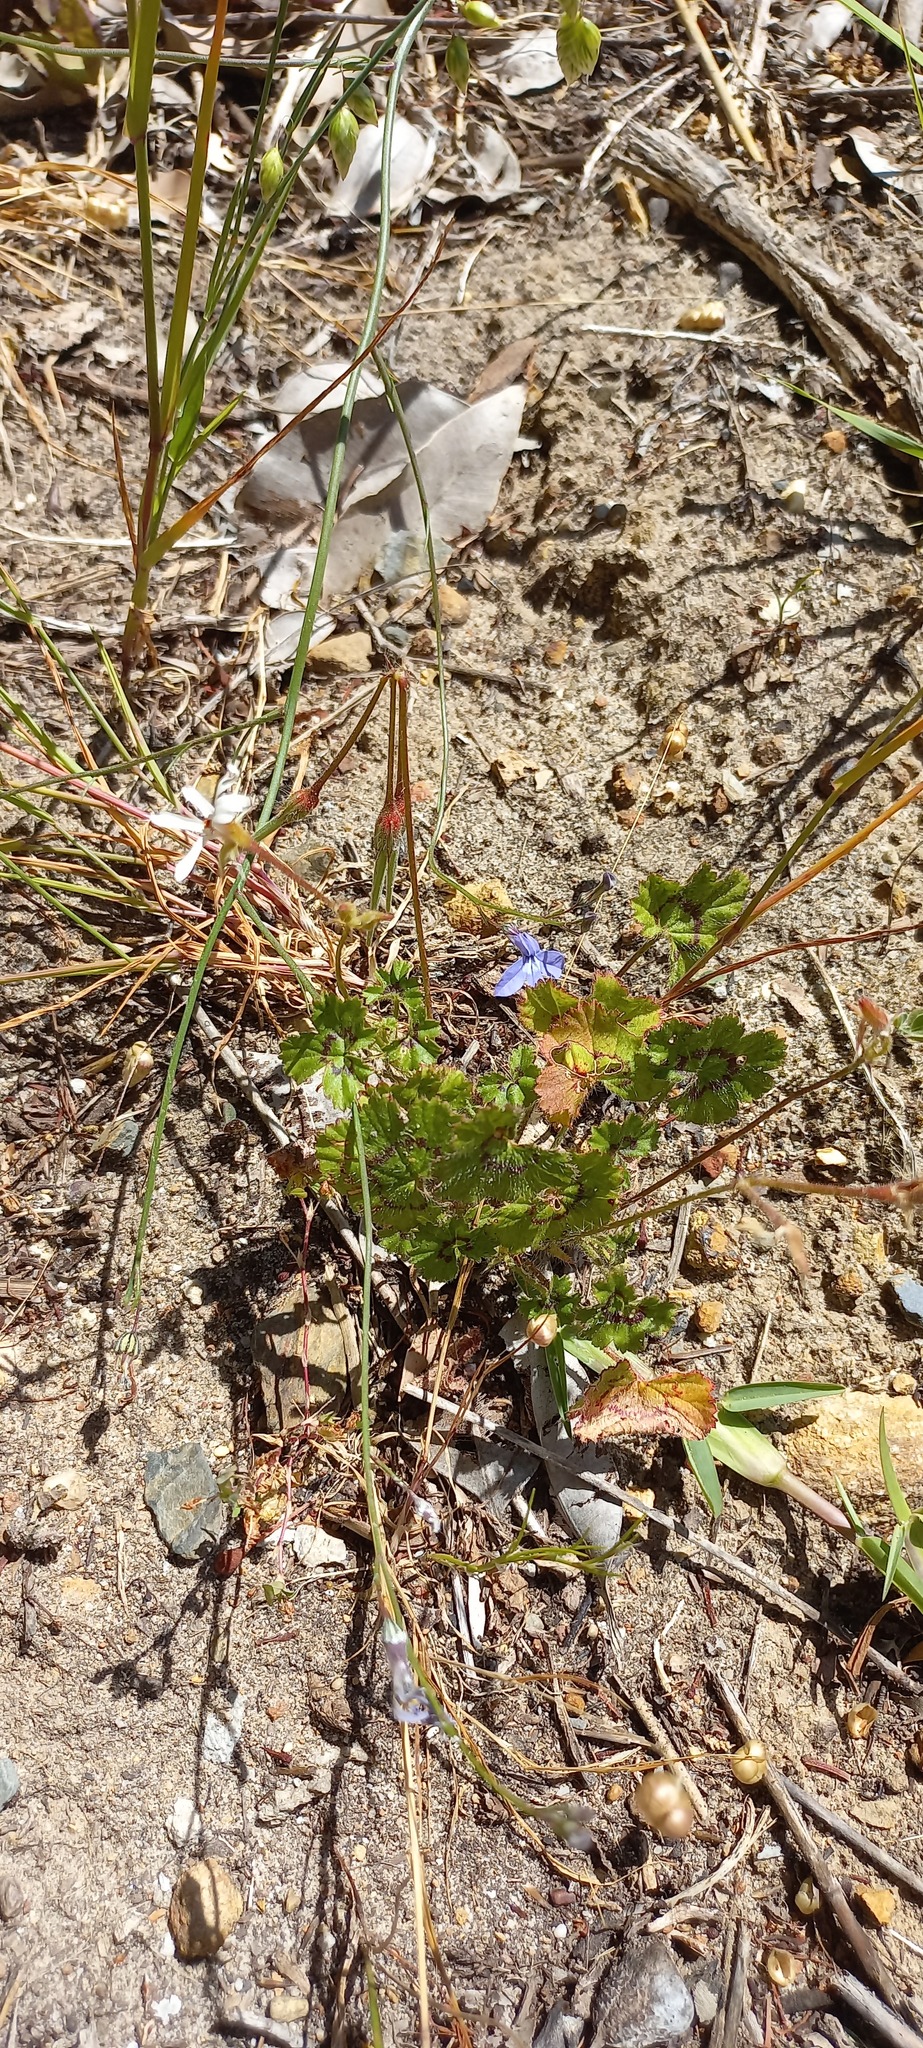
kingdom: Plantae
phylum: Tracheophyta
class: Magnoliopsida
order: Geraniales
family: Geraniaceae
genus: Pelargonium
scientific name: Pelargonium elongatum
